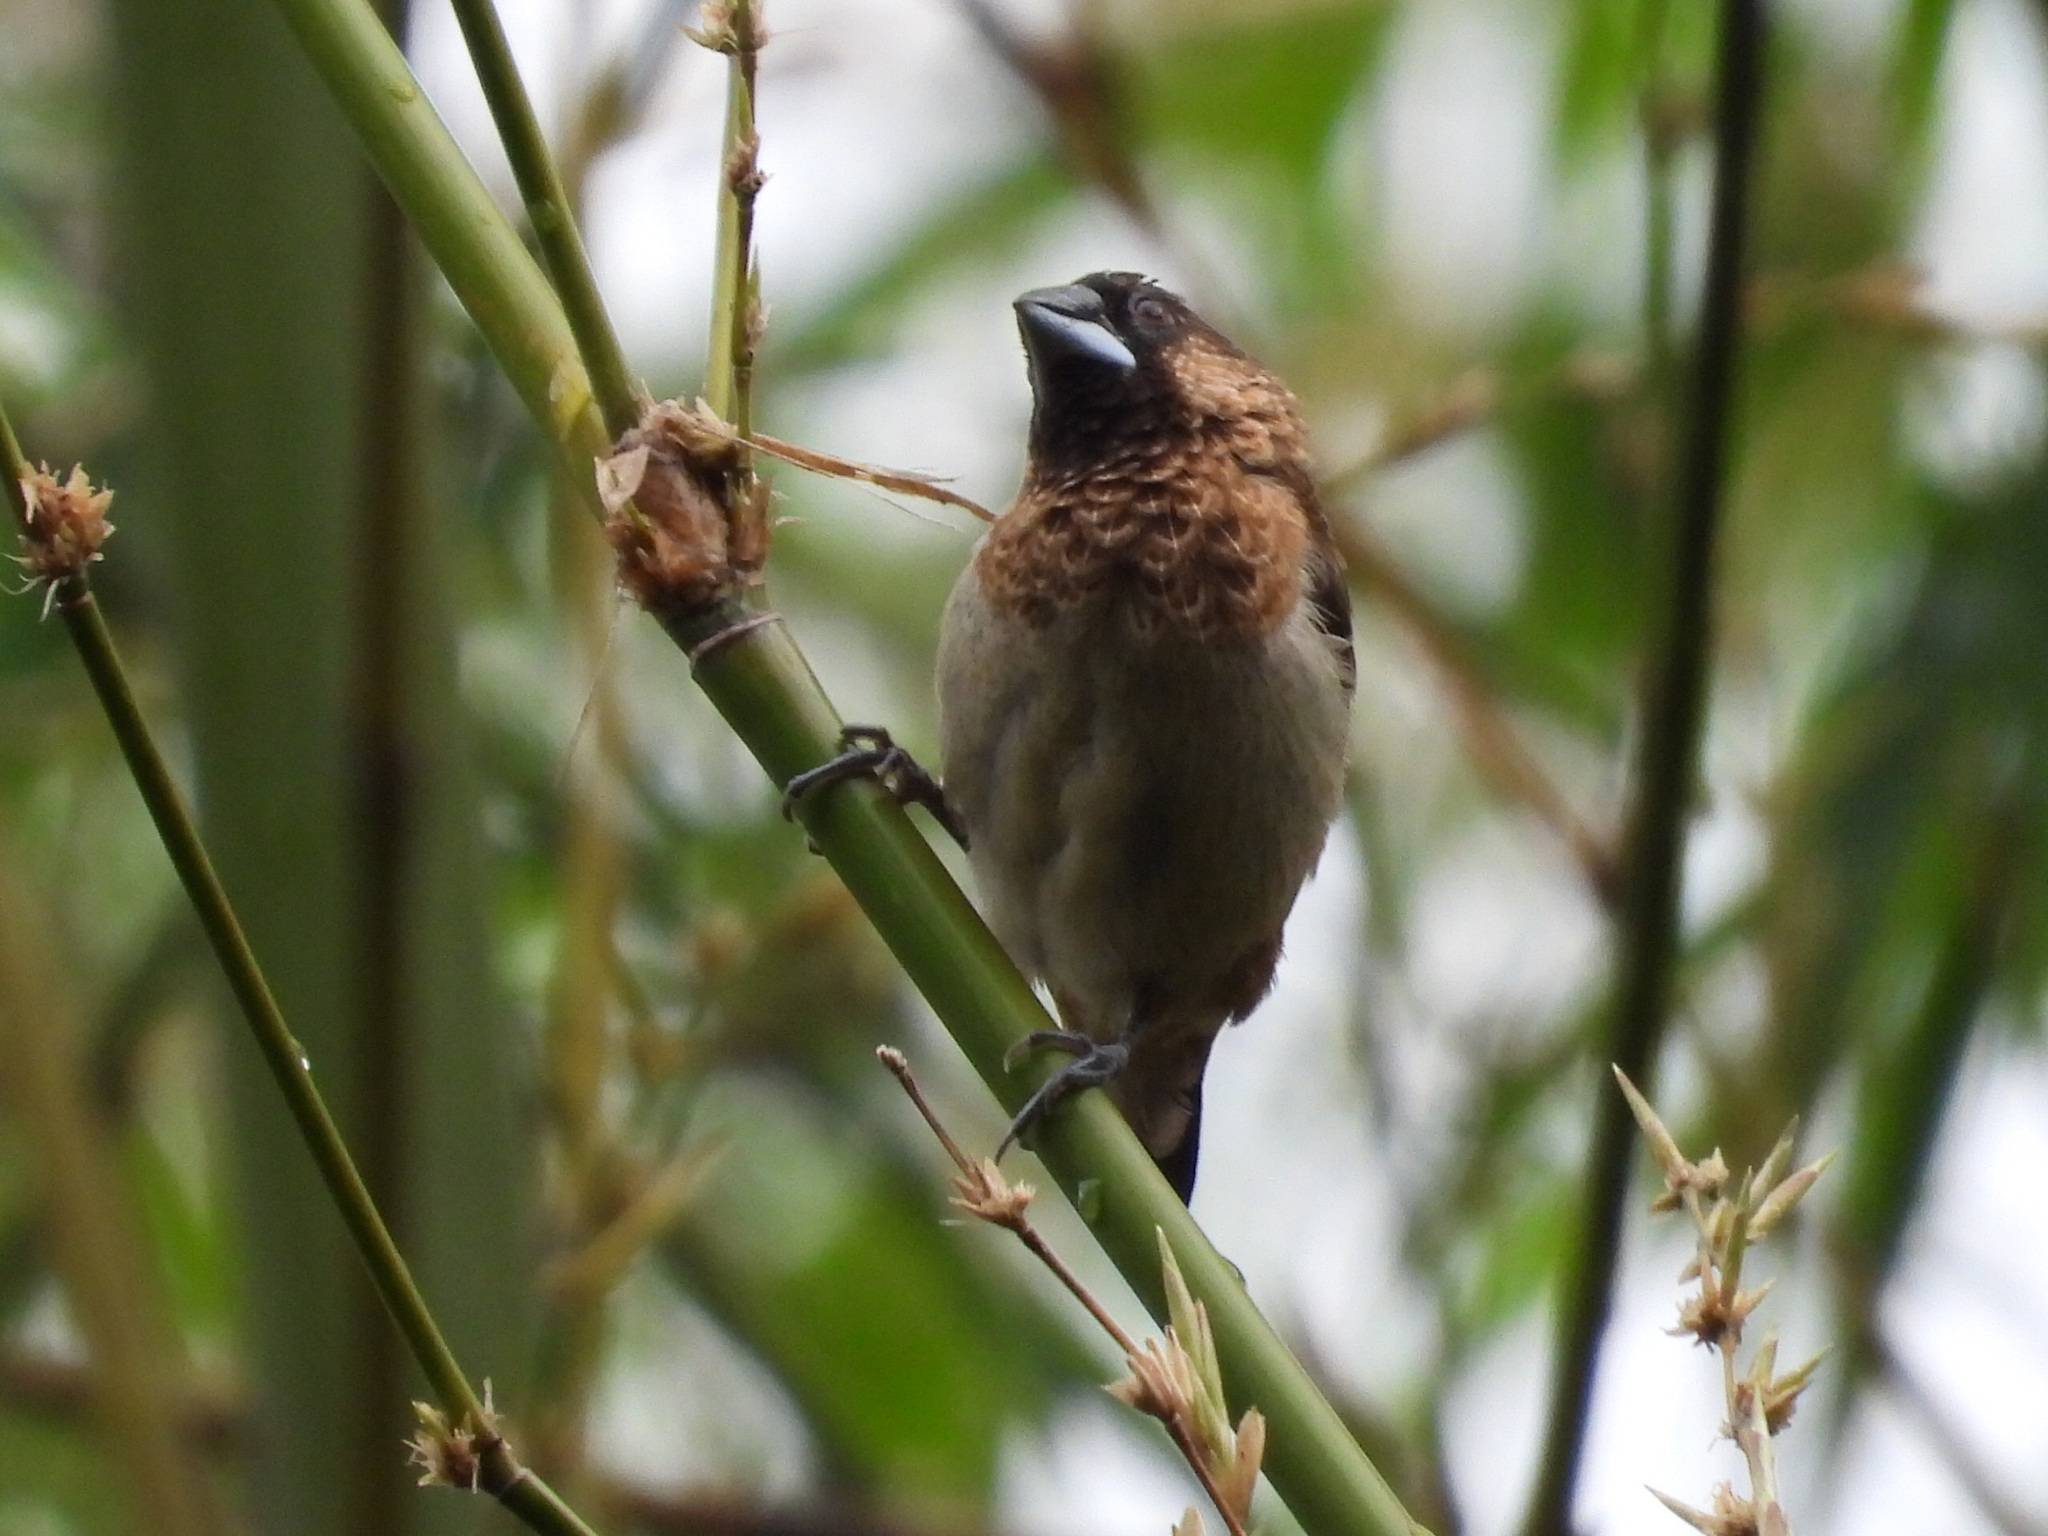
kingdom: Animalia
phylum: Chordata
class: Aves
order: Passeriformes
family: Estrildidae
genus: Lonchura
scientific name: Lonchura striata
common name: White-rumped munia
